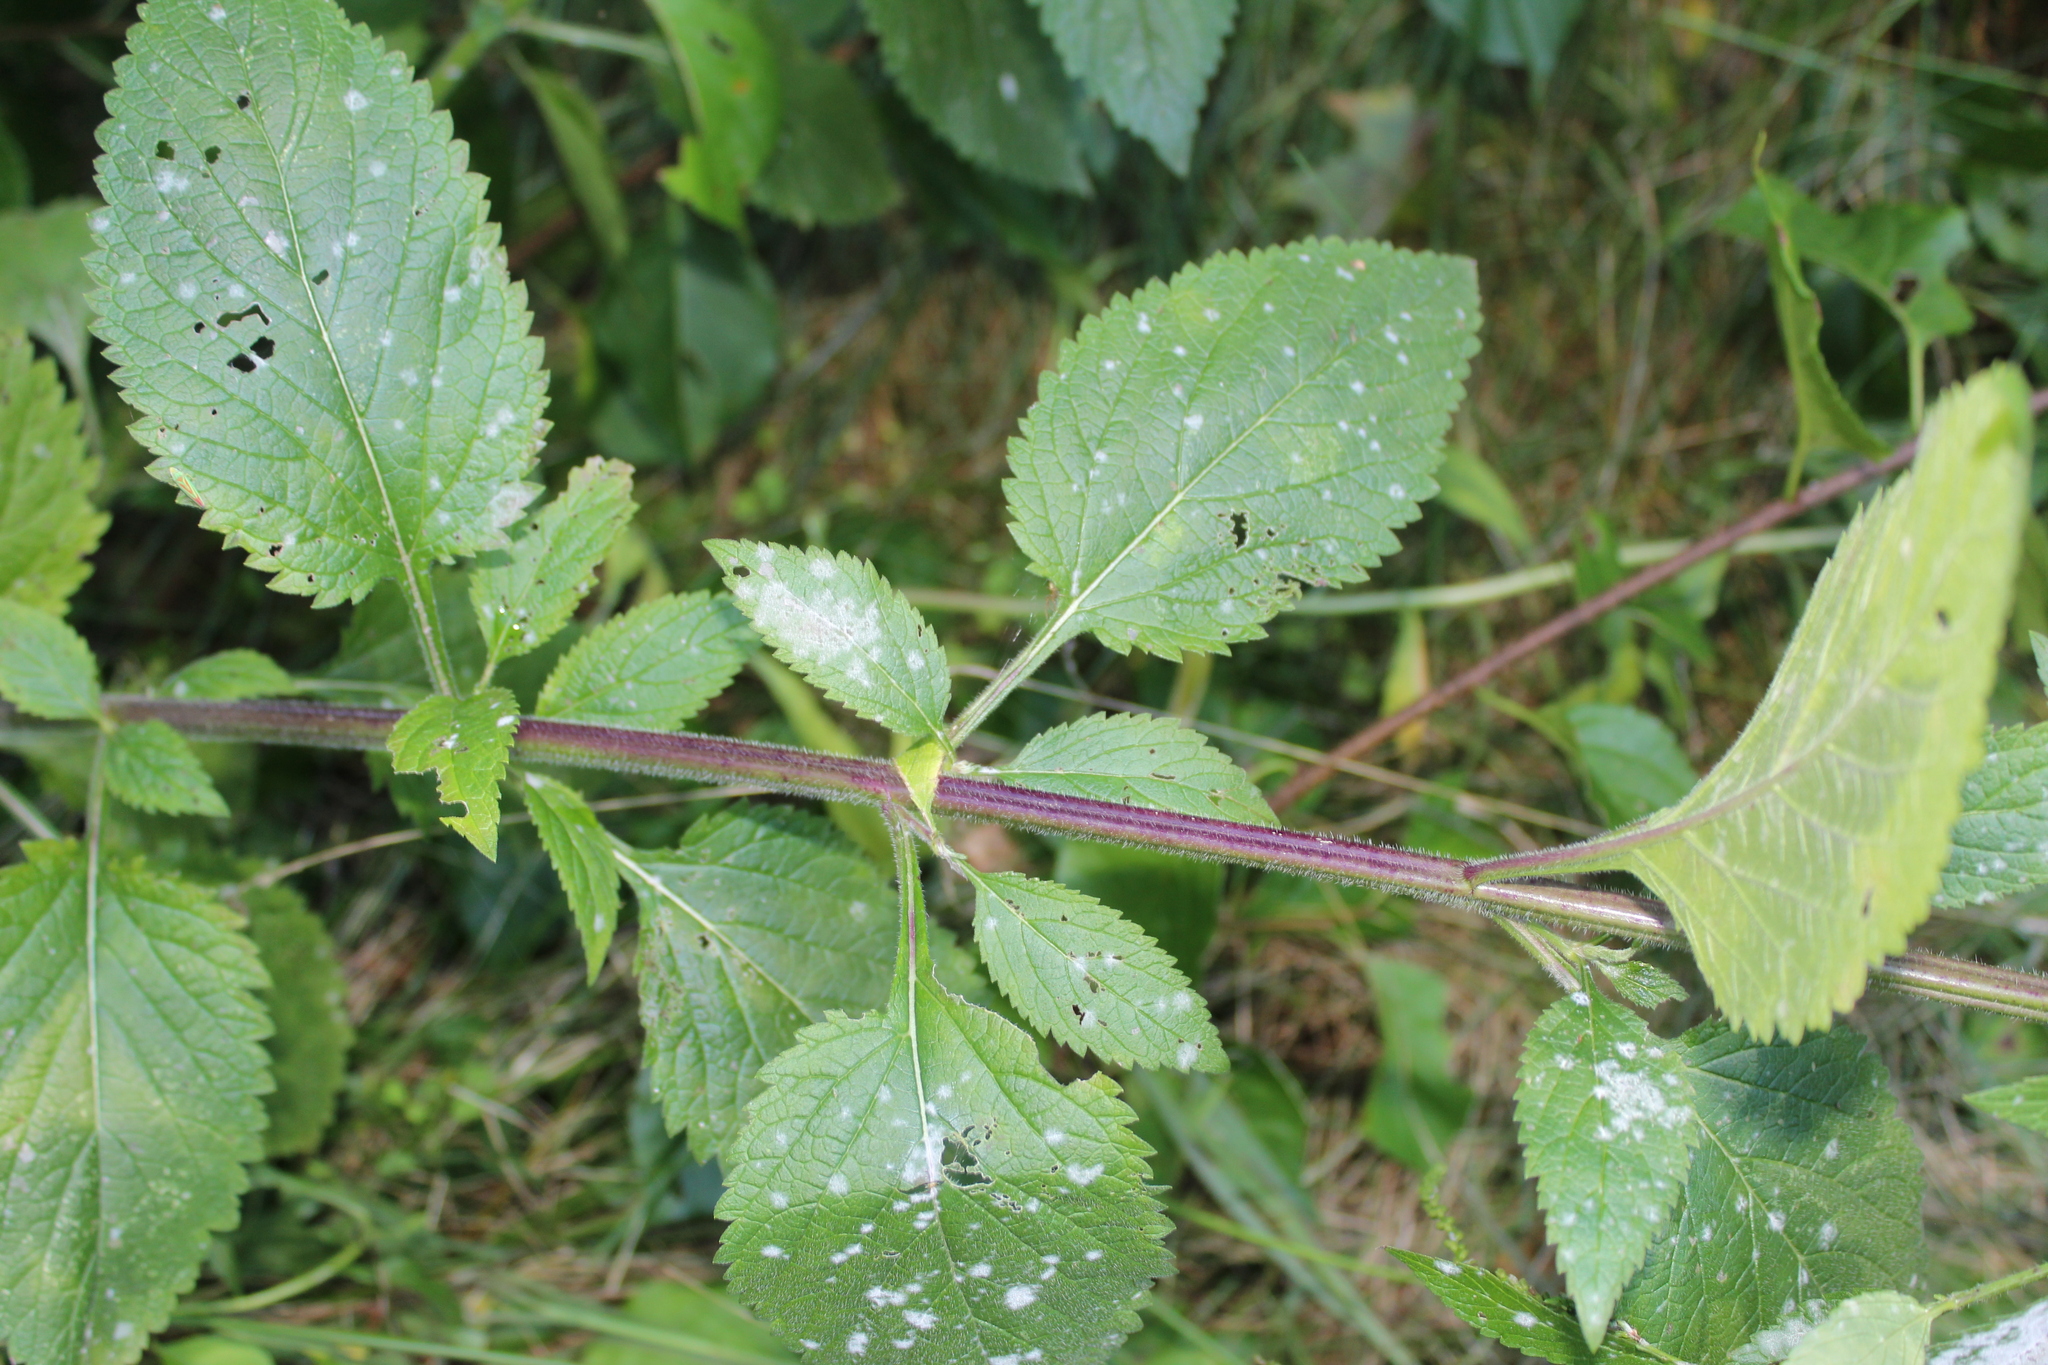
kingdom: Fungi
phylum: Ascomycota
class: Leotiomycetes
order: Helotiales
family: Erysiphaceae
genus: Golovinomyces
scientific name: Golovinomyces verbenae
